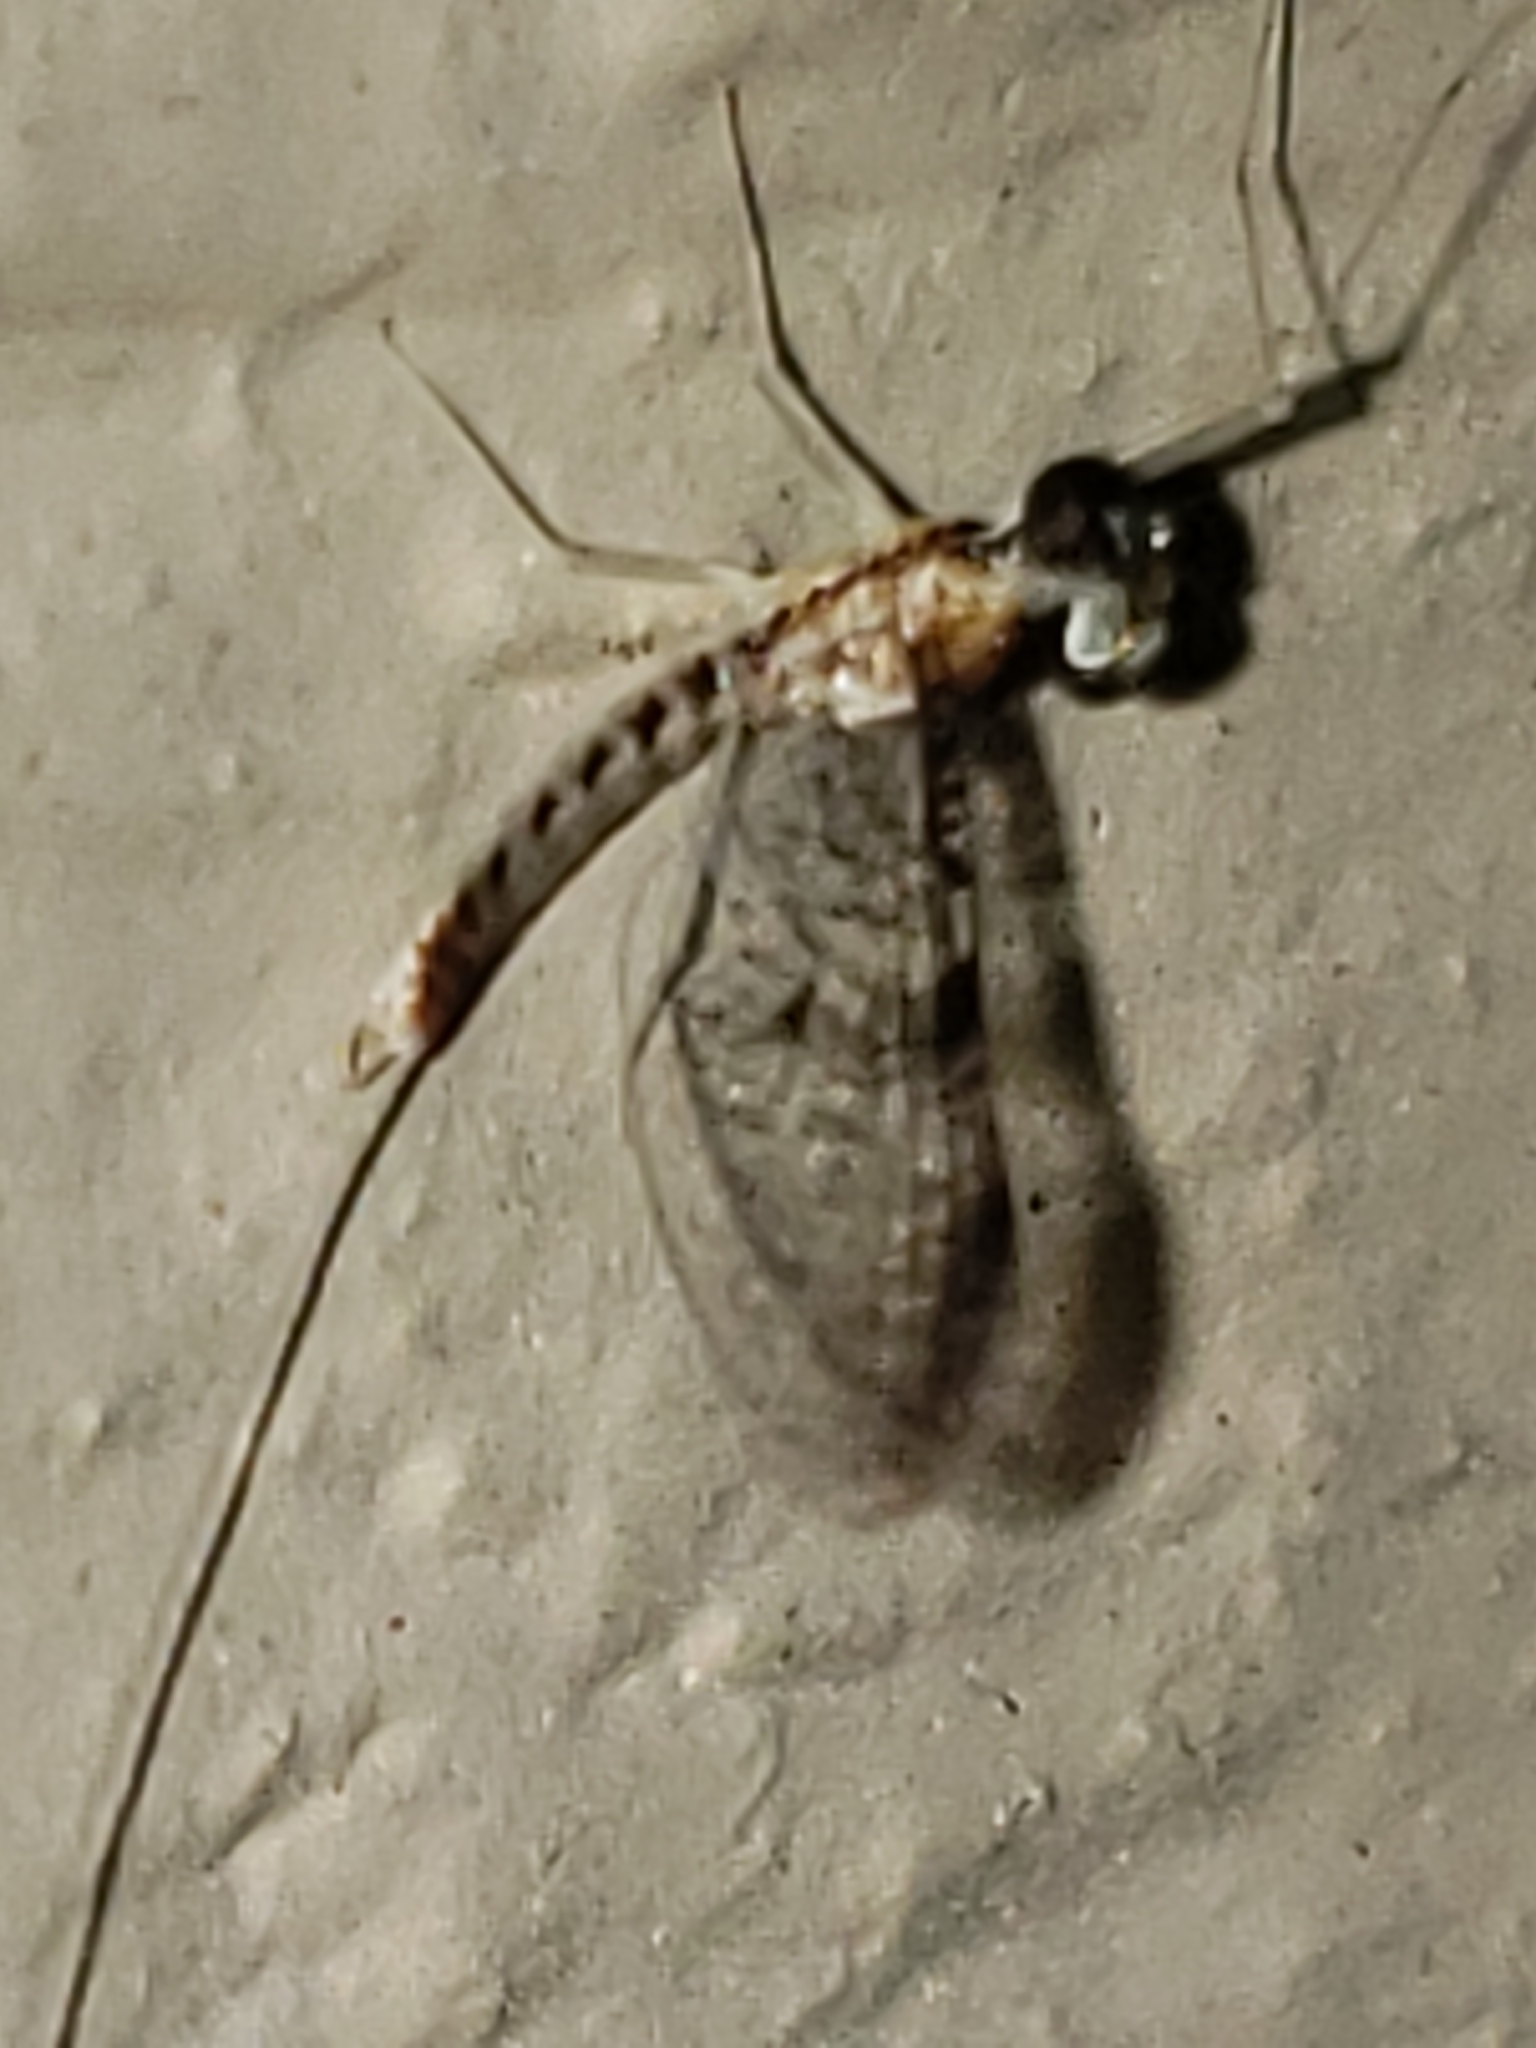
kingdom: Animalia
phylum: Arthropoda
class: Insecta
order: Ephemeroptera
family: Heptageniidae
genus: Leucrocuta
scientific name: Leucrocuta minerva
